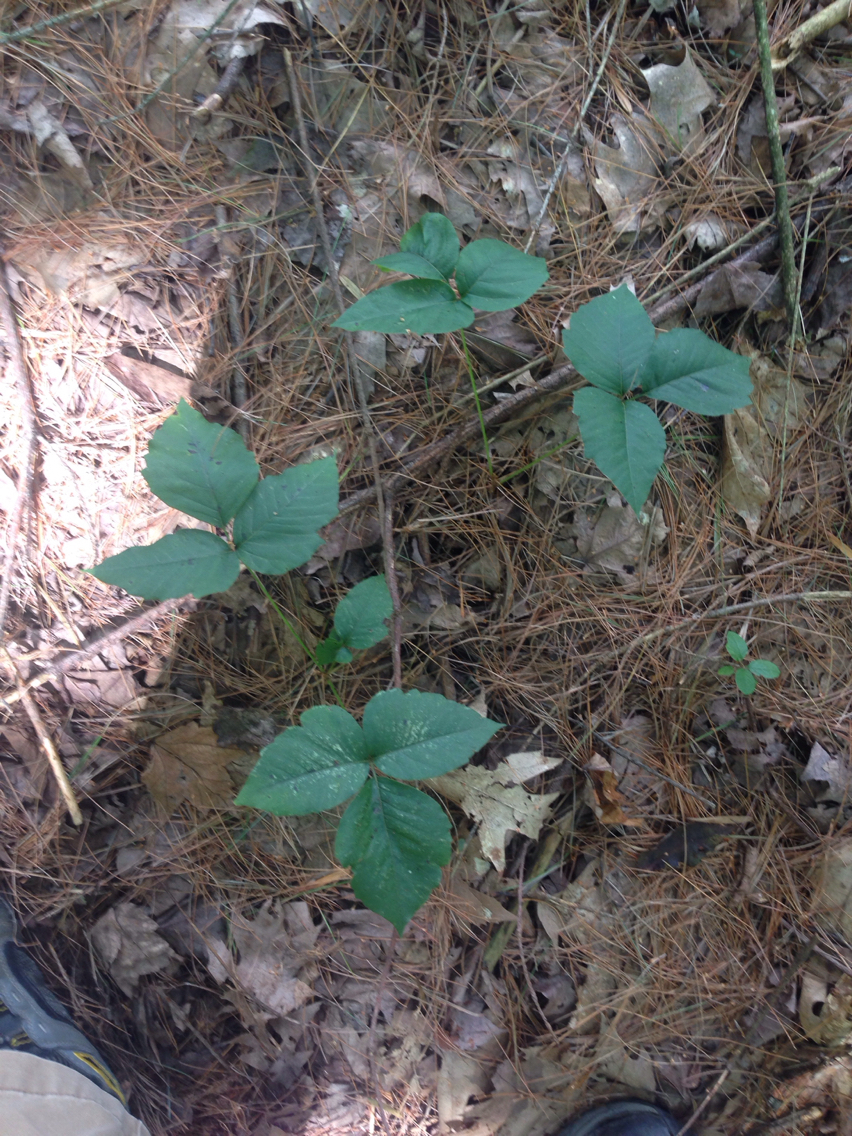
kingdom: Plantae
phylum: Tracheophyta
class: Magnoliopsida
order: Sapindales
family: Anacardiaceae
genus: Toxicodendron
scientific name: Toxicodendron radicans
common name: Poison ivy
